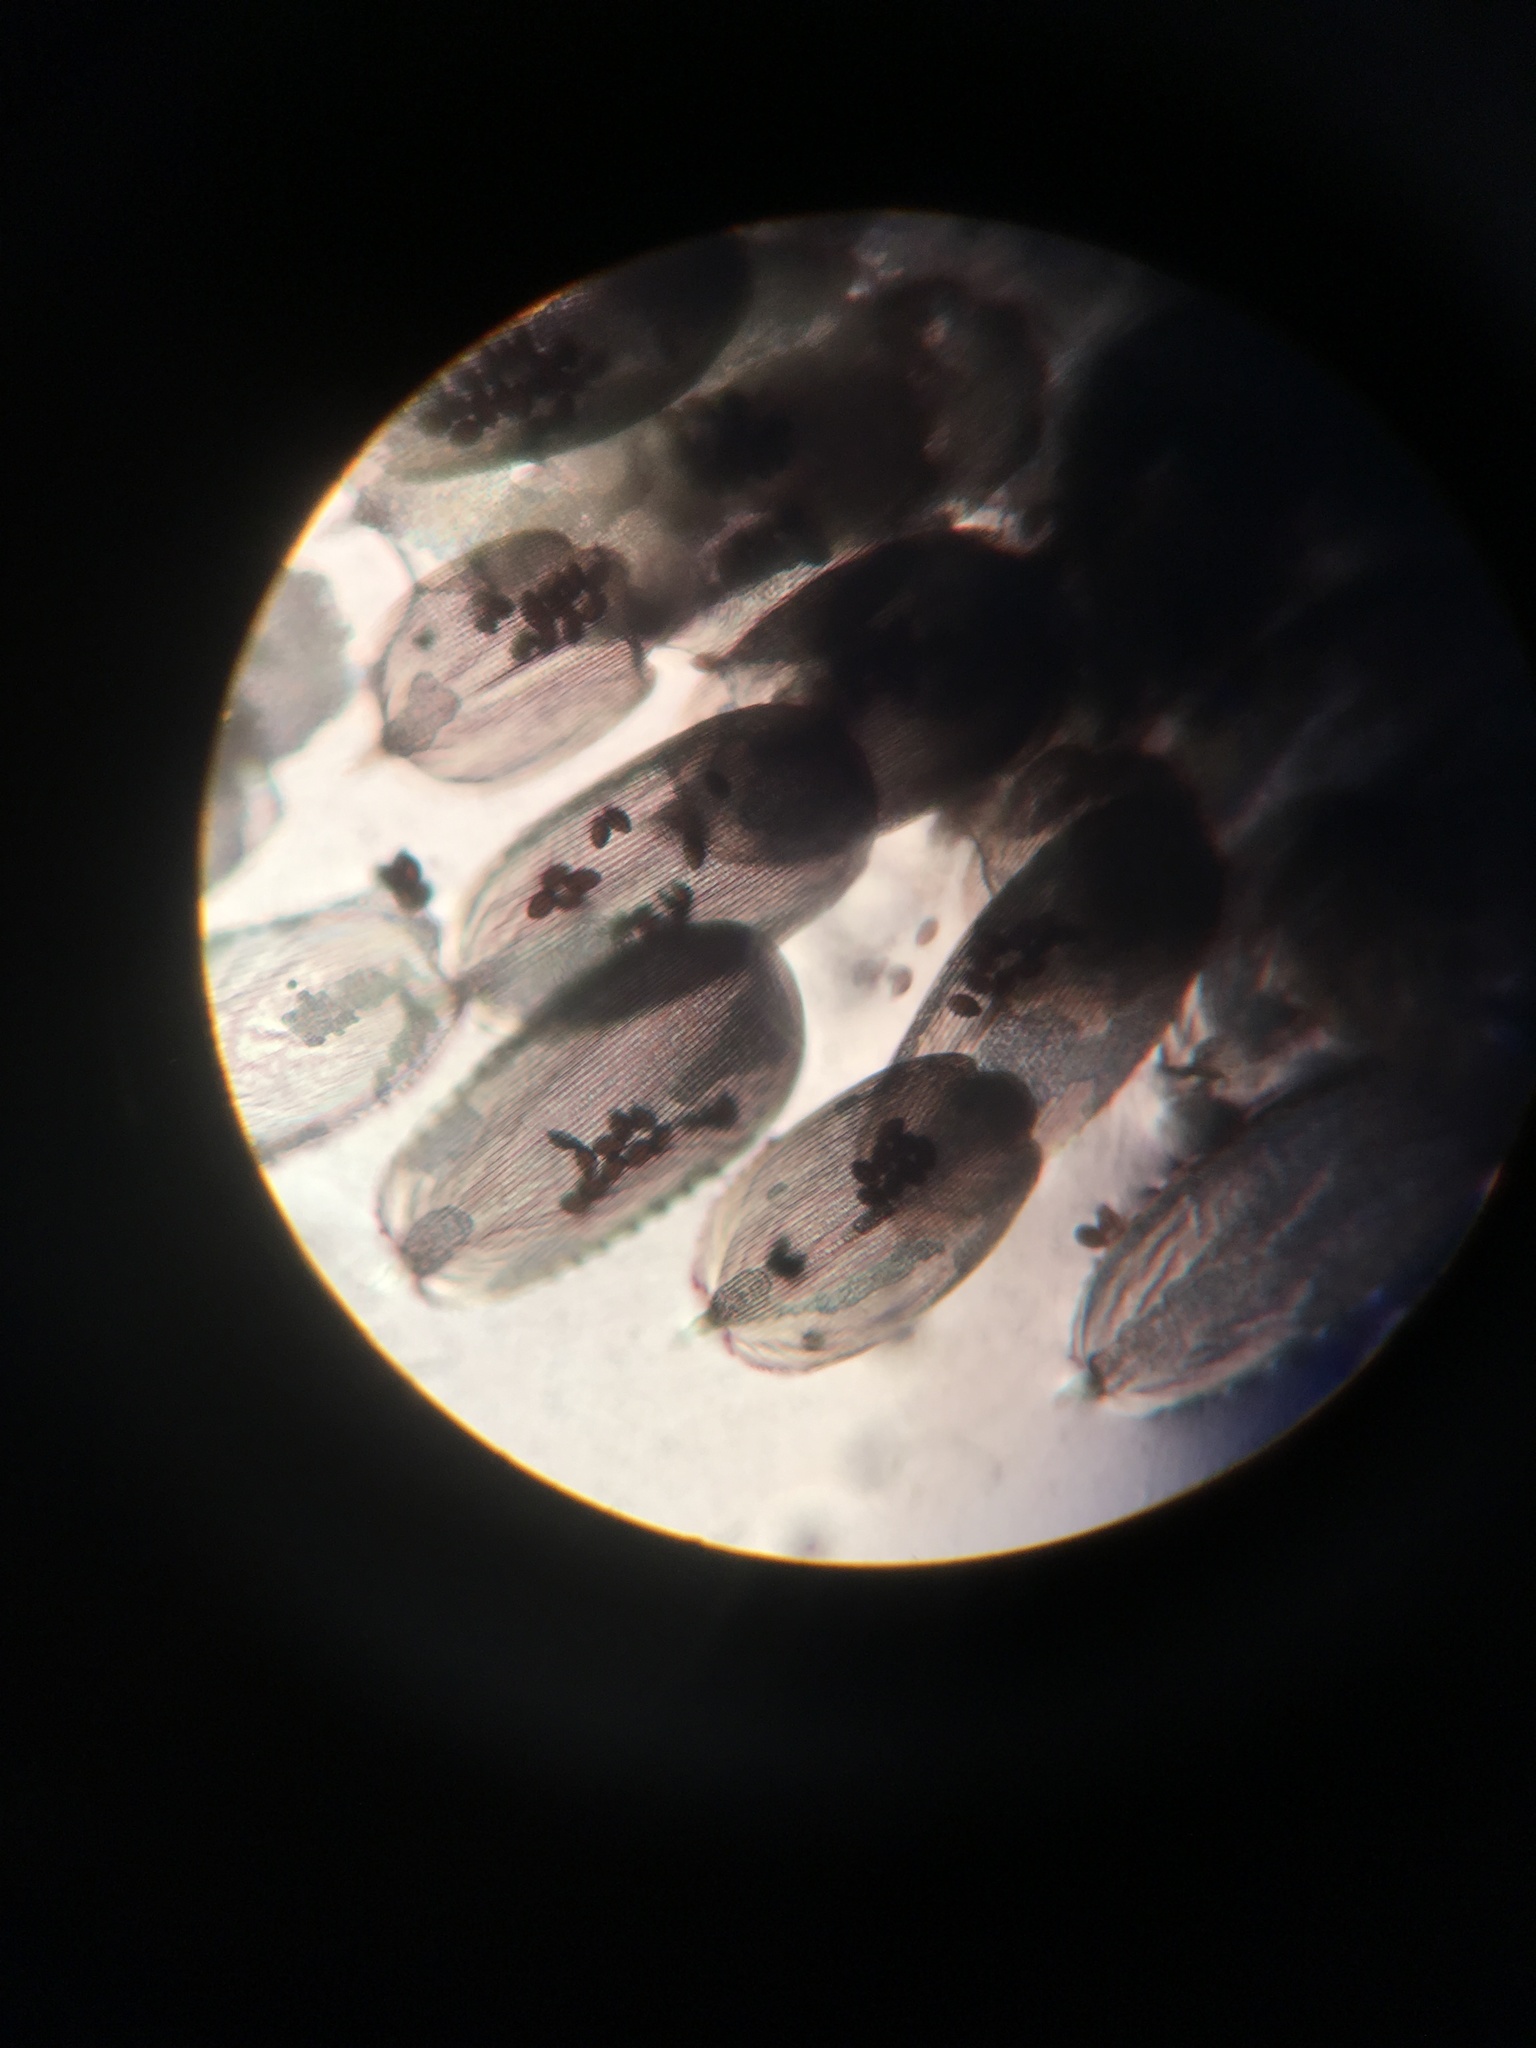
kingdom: Chromista
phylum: Myzozoa
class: Conoidasida
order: Neogregarinorida
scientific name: Neogregarinorida
